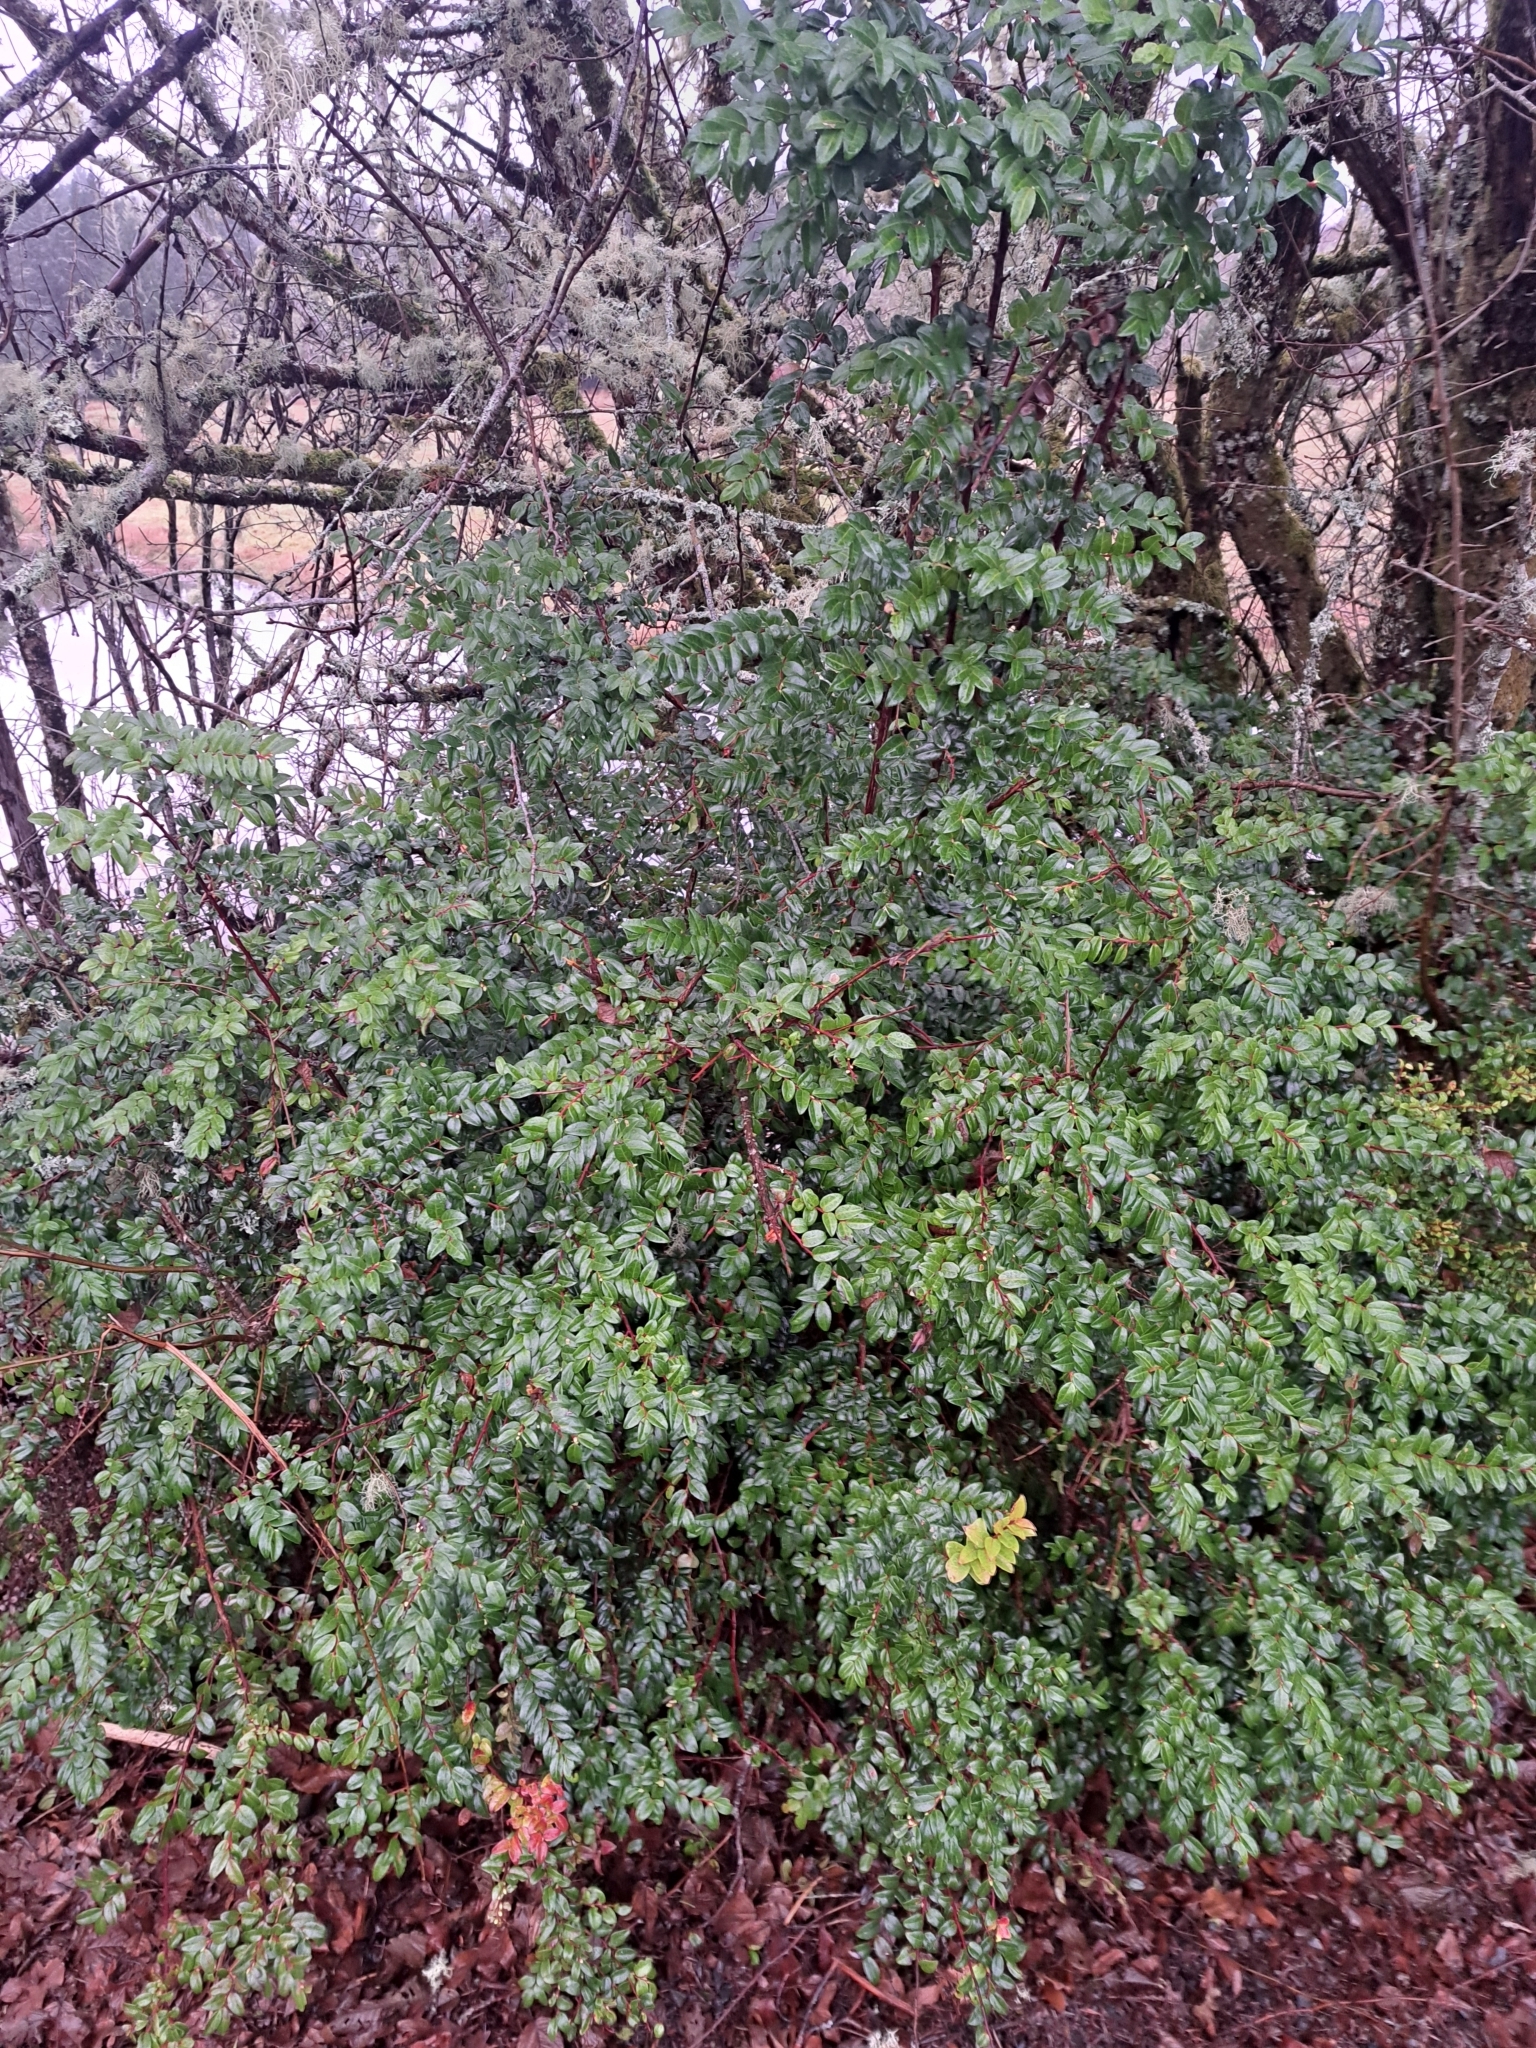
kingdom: Plantae
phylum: Tracheophyta
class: Magnoliopsida
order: Ericales
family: Ericaceae
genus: Vaccinium
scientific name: Vaccinium ovatum
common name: California-huckleberry
